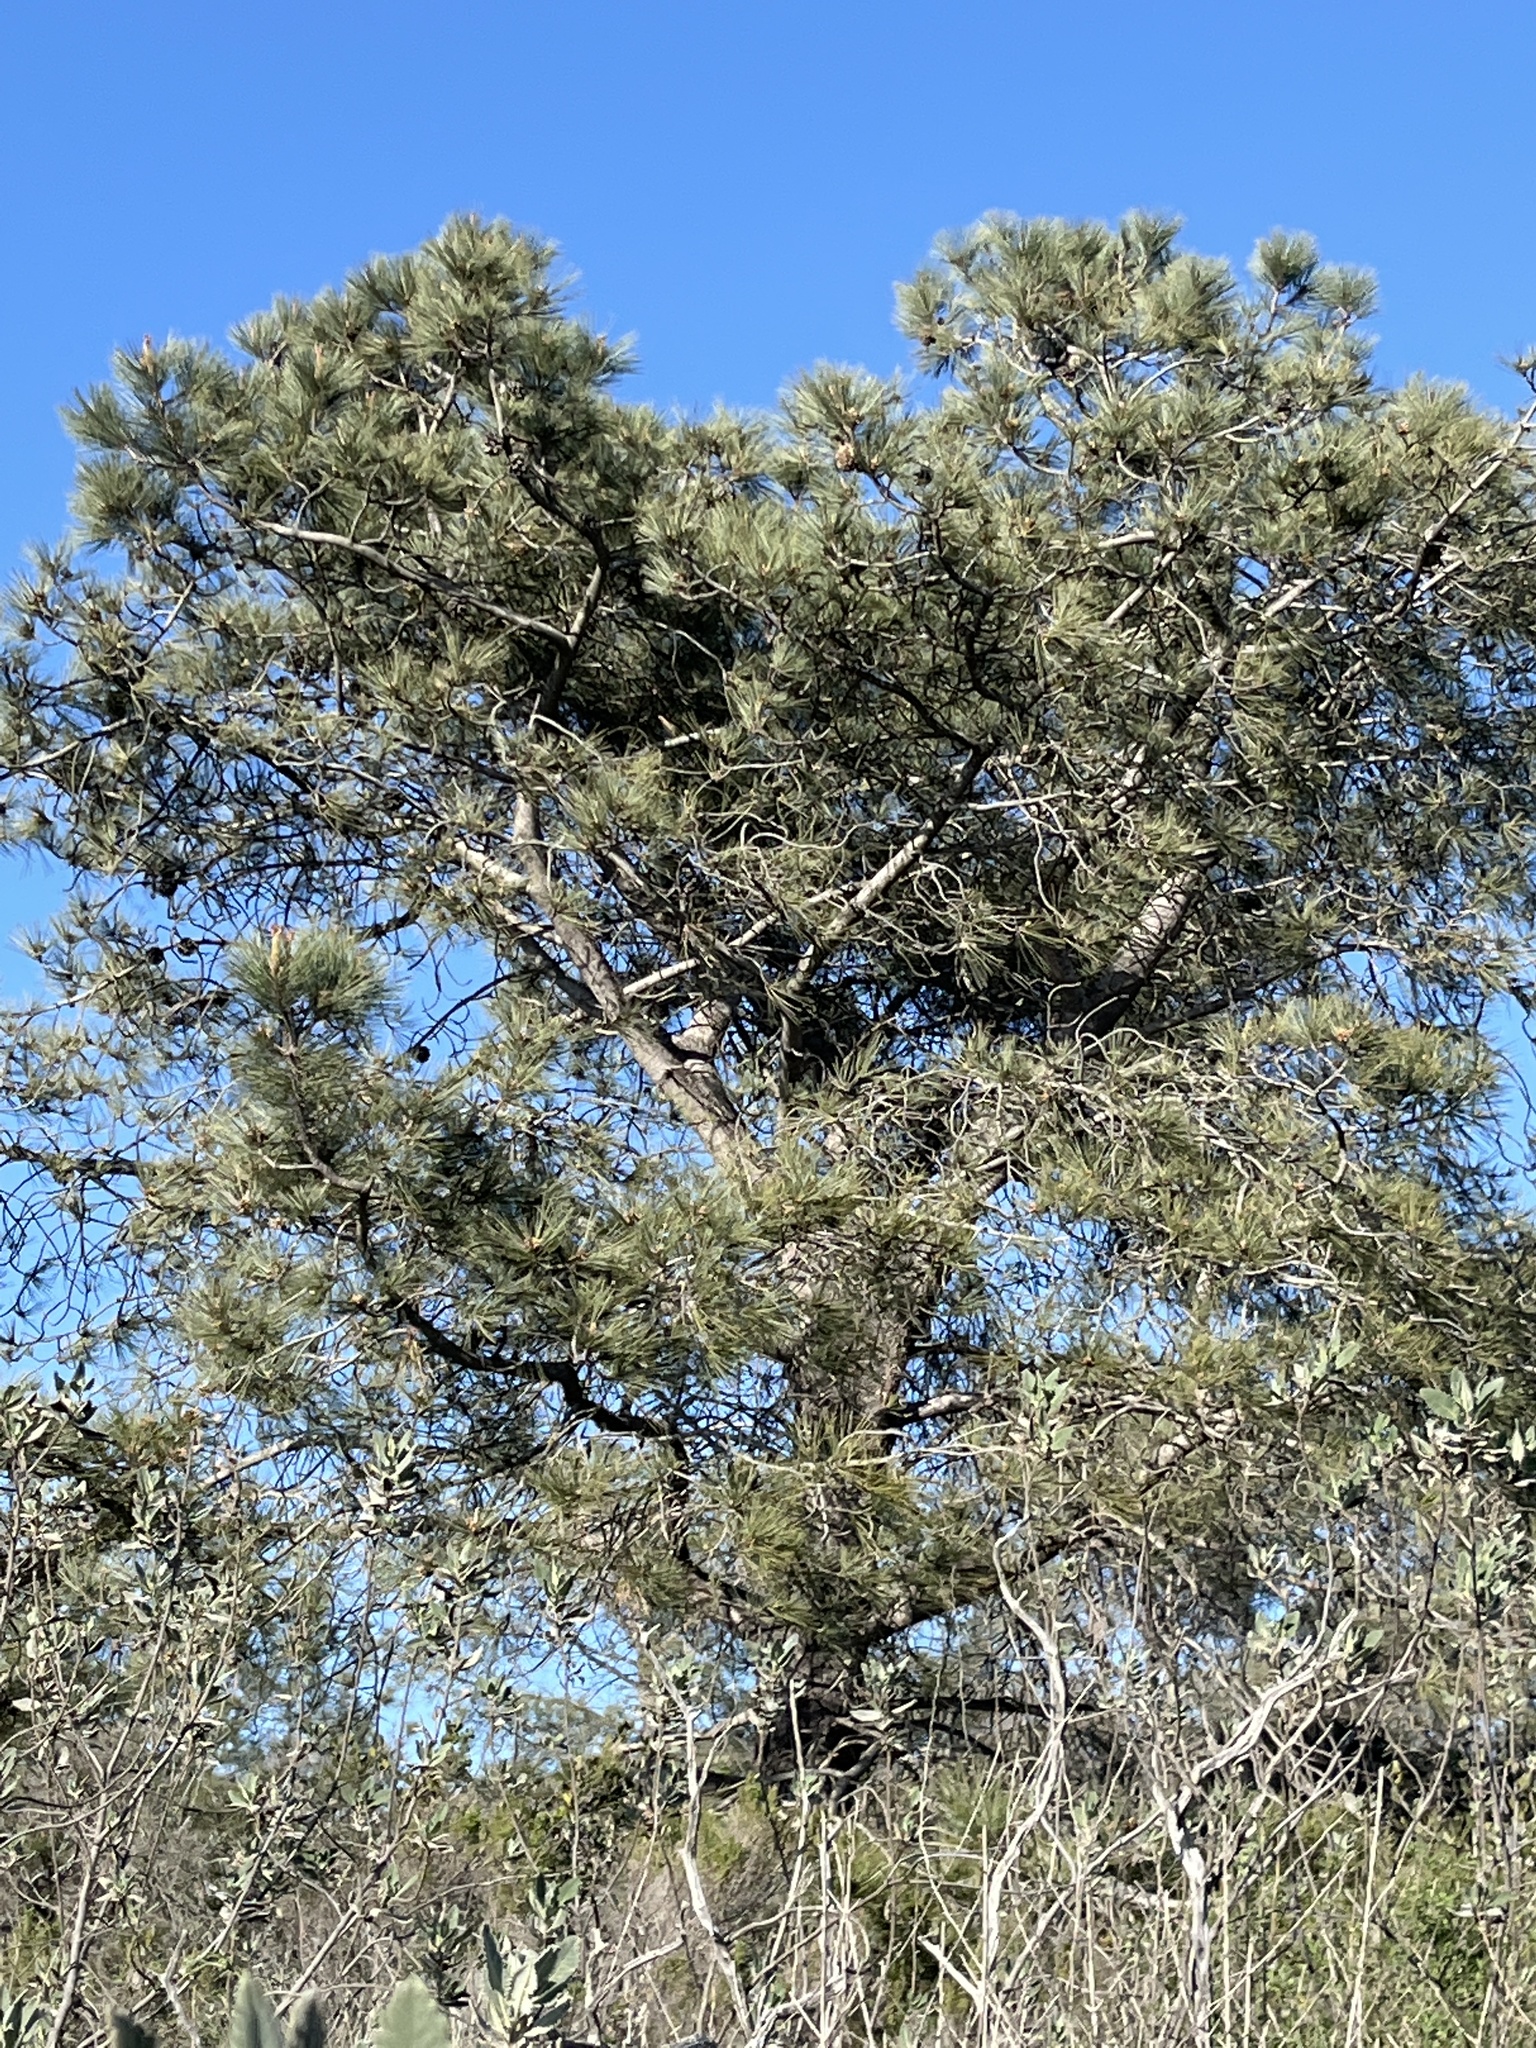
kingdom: Plantae
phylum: Tracheophyta
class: Pinopsida
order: Pinales
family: Pinaceae
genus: Pinus
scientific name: Pinus torreyana
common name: Torrey pine
